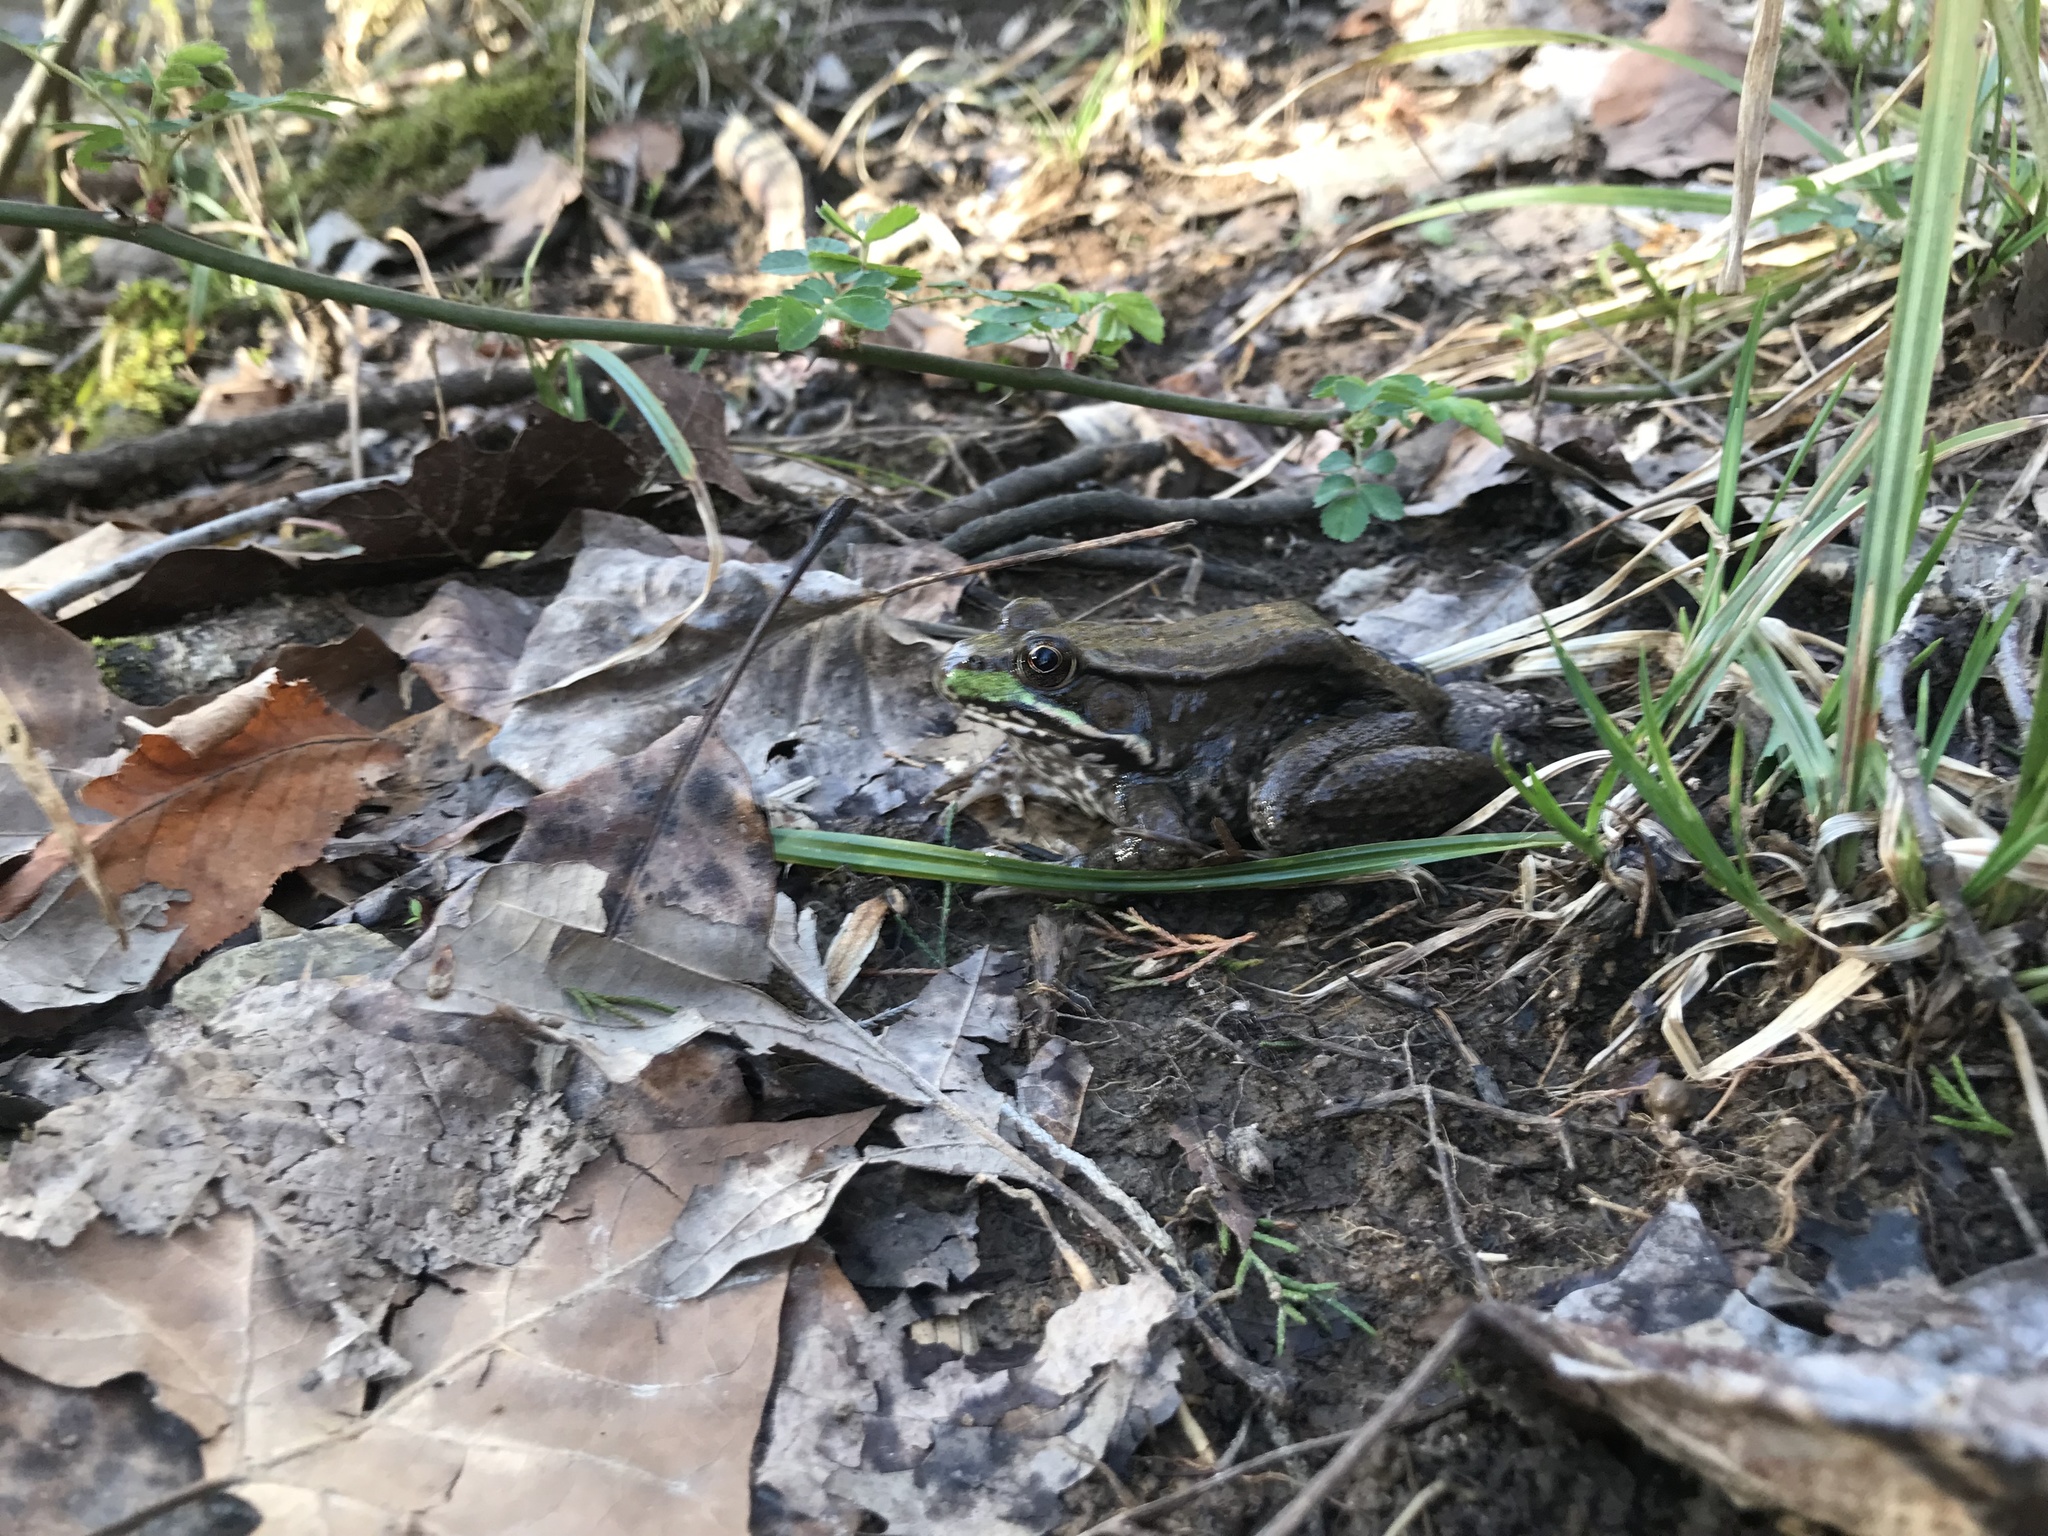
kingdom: Animalia
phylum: Chordata
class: Amphibia
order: Anura
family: Ranidae
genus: Lithobates
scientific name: Lithobates clamitans
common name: Green frog
